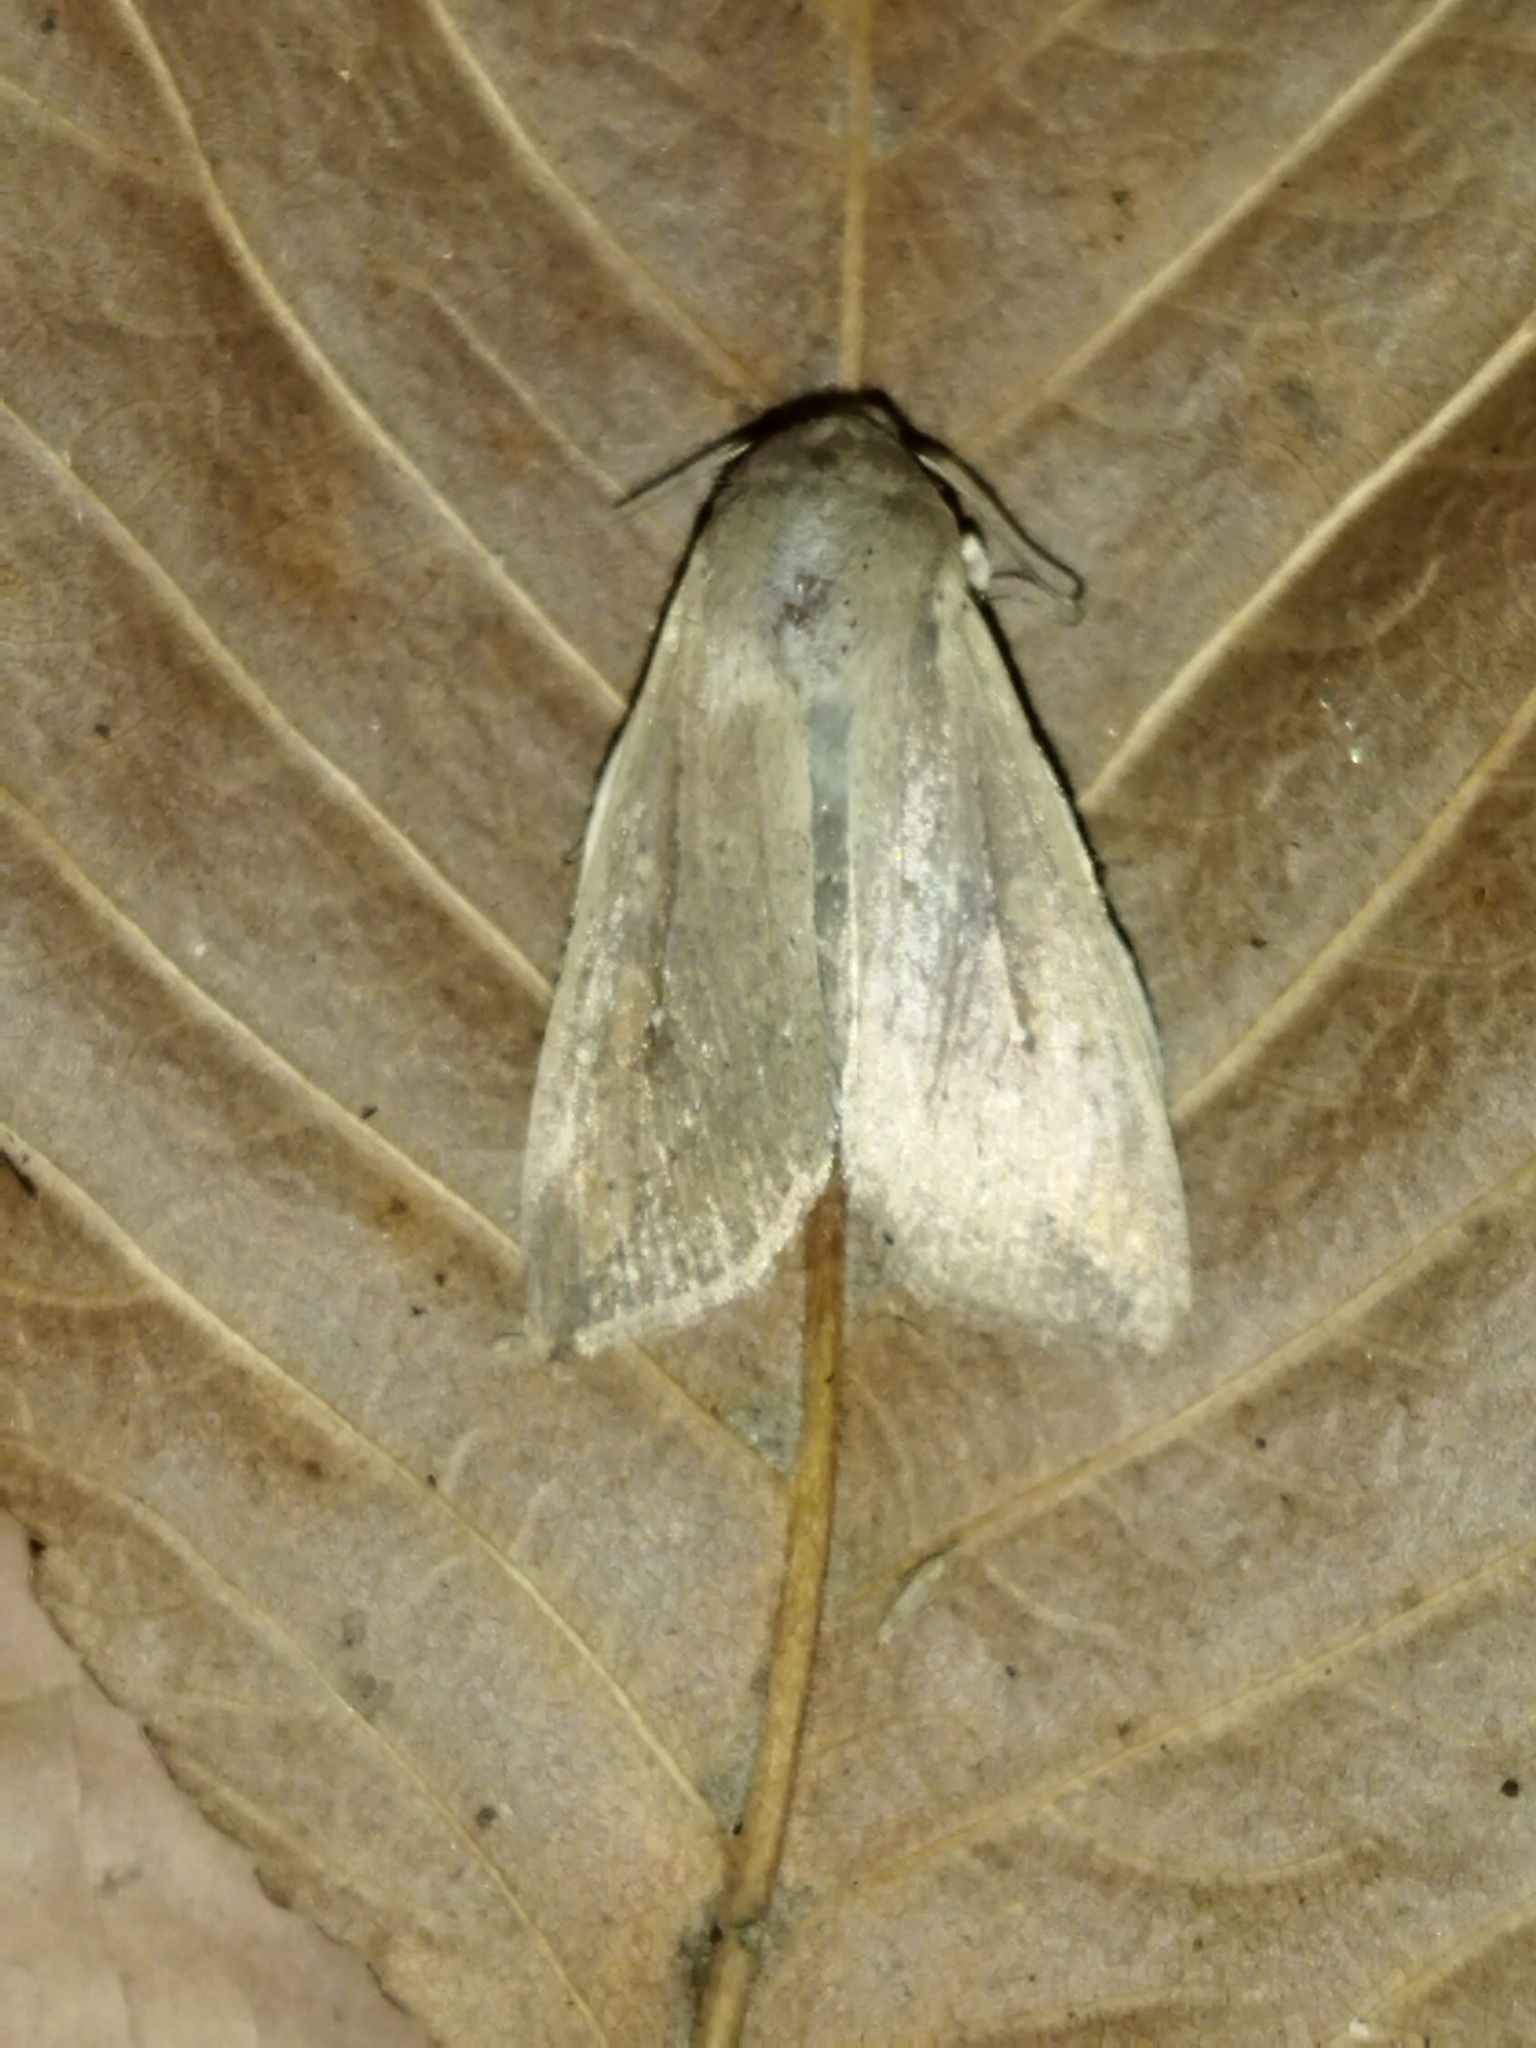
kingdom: Animalia
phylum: Arthropoda
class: Insecta
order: Lepidoptera
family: Noctuidae
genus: Mythimna
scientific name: Mythimna unipuncta
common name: White-speck
